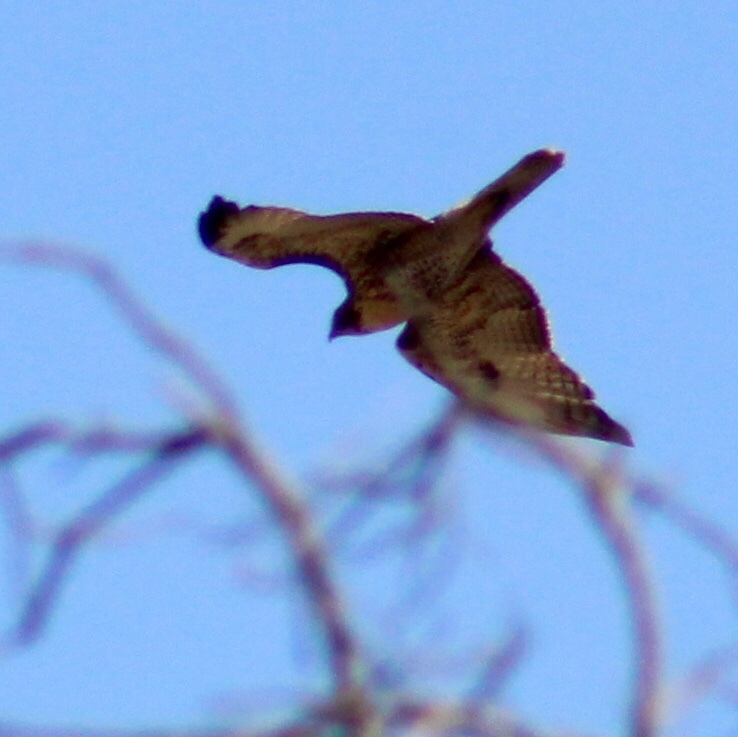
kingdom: Animalia
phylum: Chordata
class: Aves
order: Accipitriformes
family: Accipitridae
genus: Buteo
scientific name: Buteo jamaicensis
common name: Red-tailed hawk
